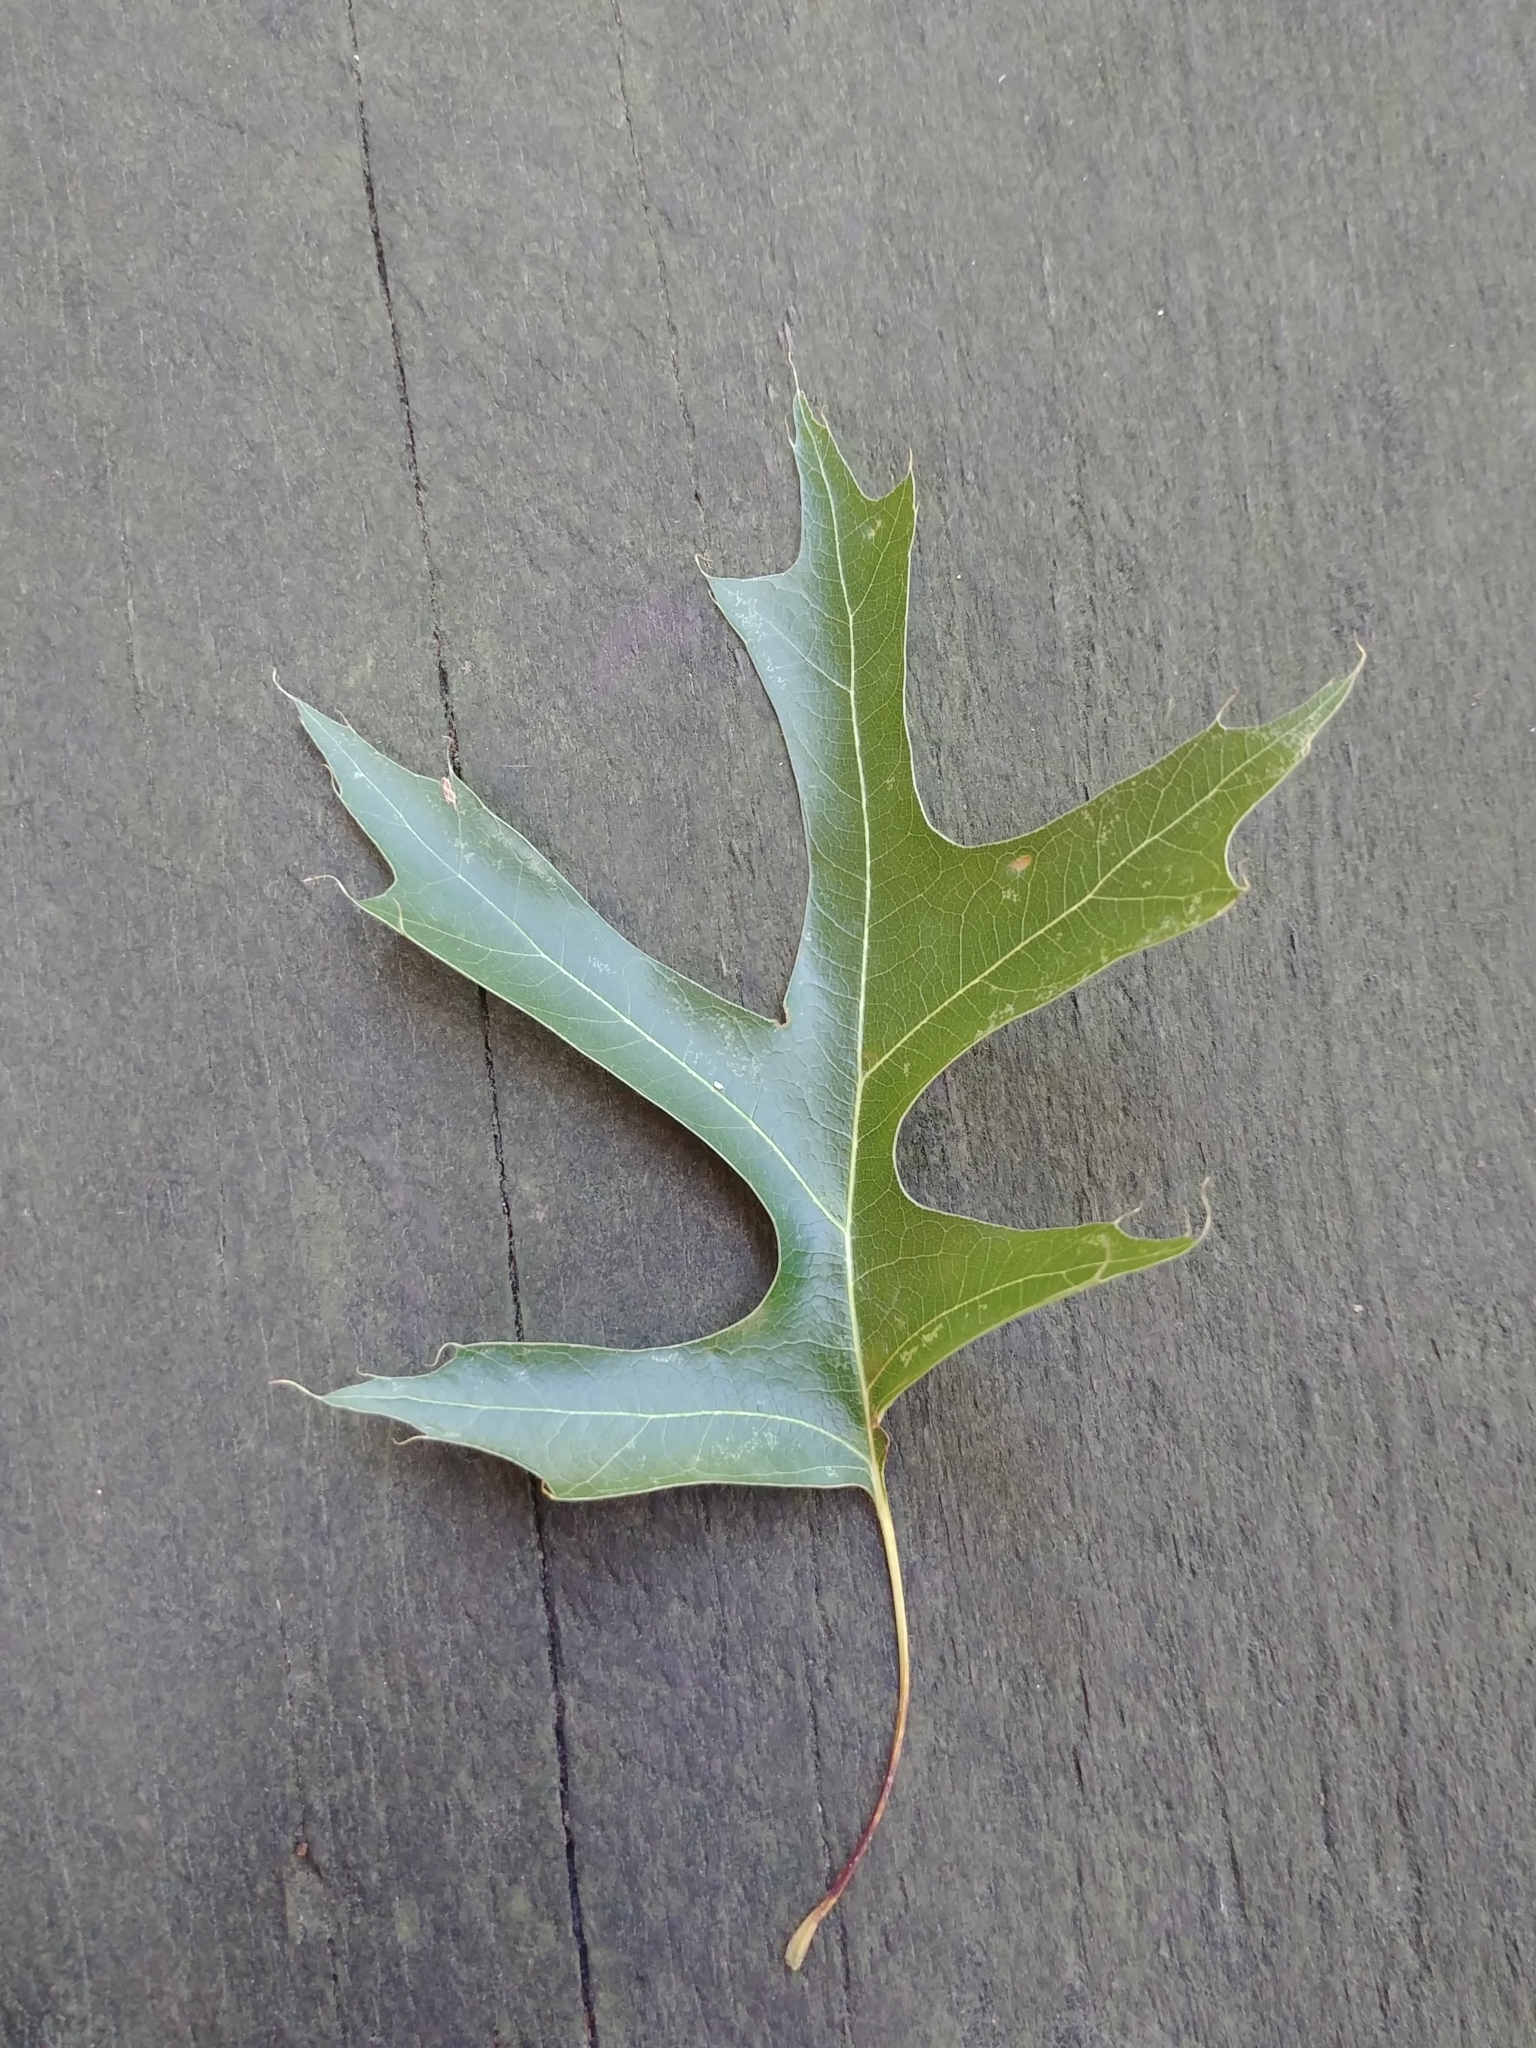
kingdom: Plantae
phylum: Tracheophyta
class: Magnoliopsida
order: Fagales
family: Fagaceae
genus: Quercus
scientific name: Quercus palustris
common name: Pin oak
